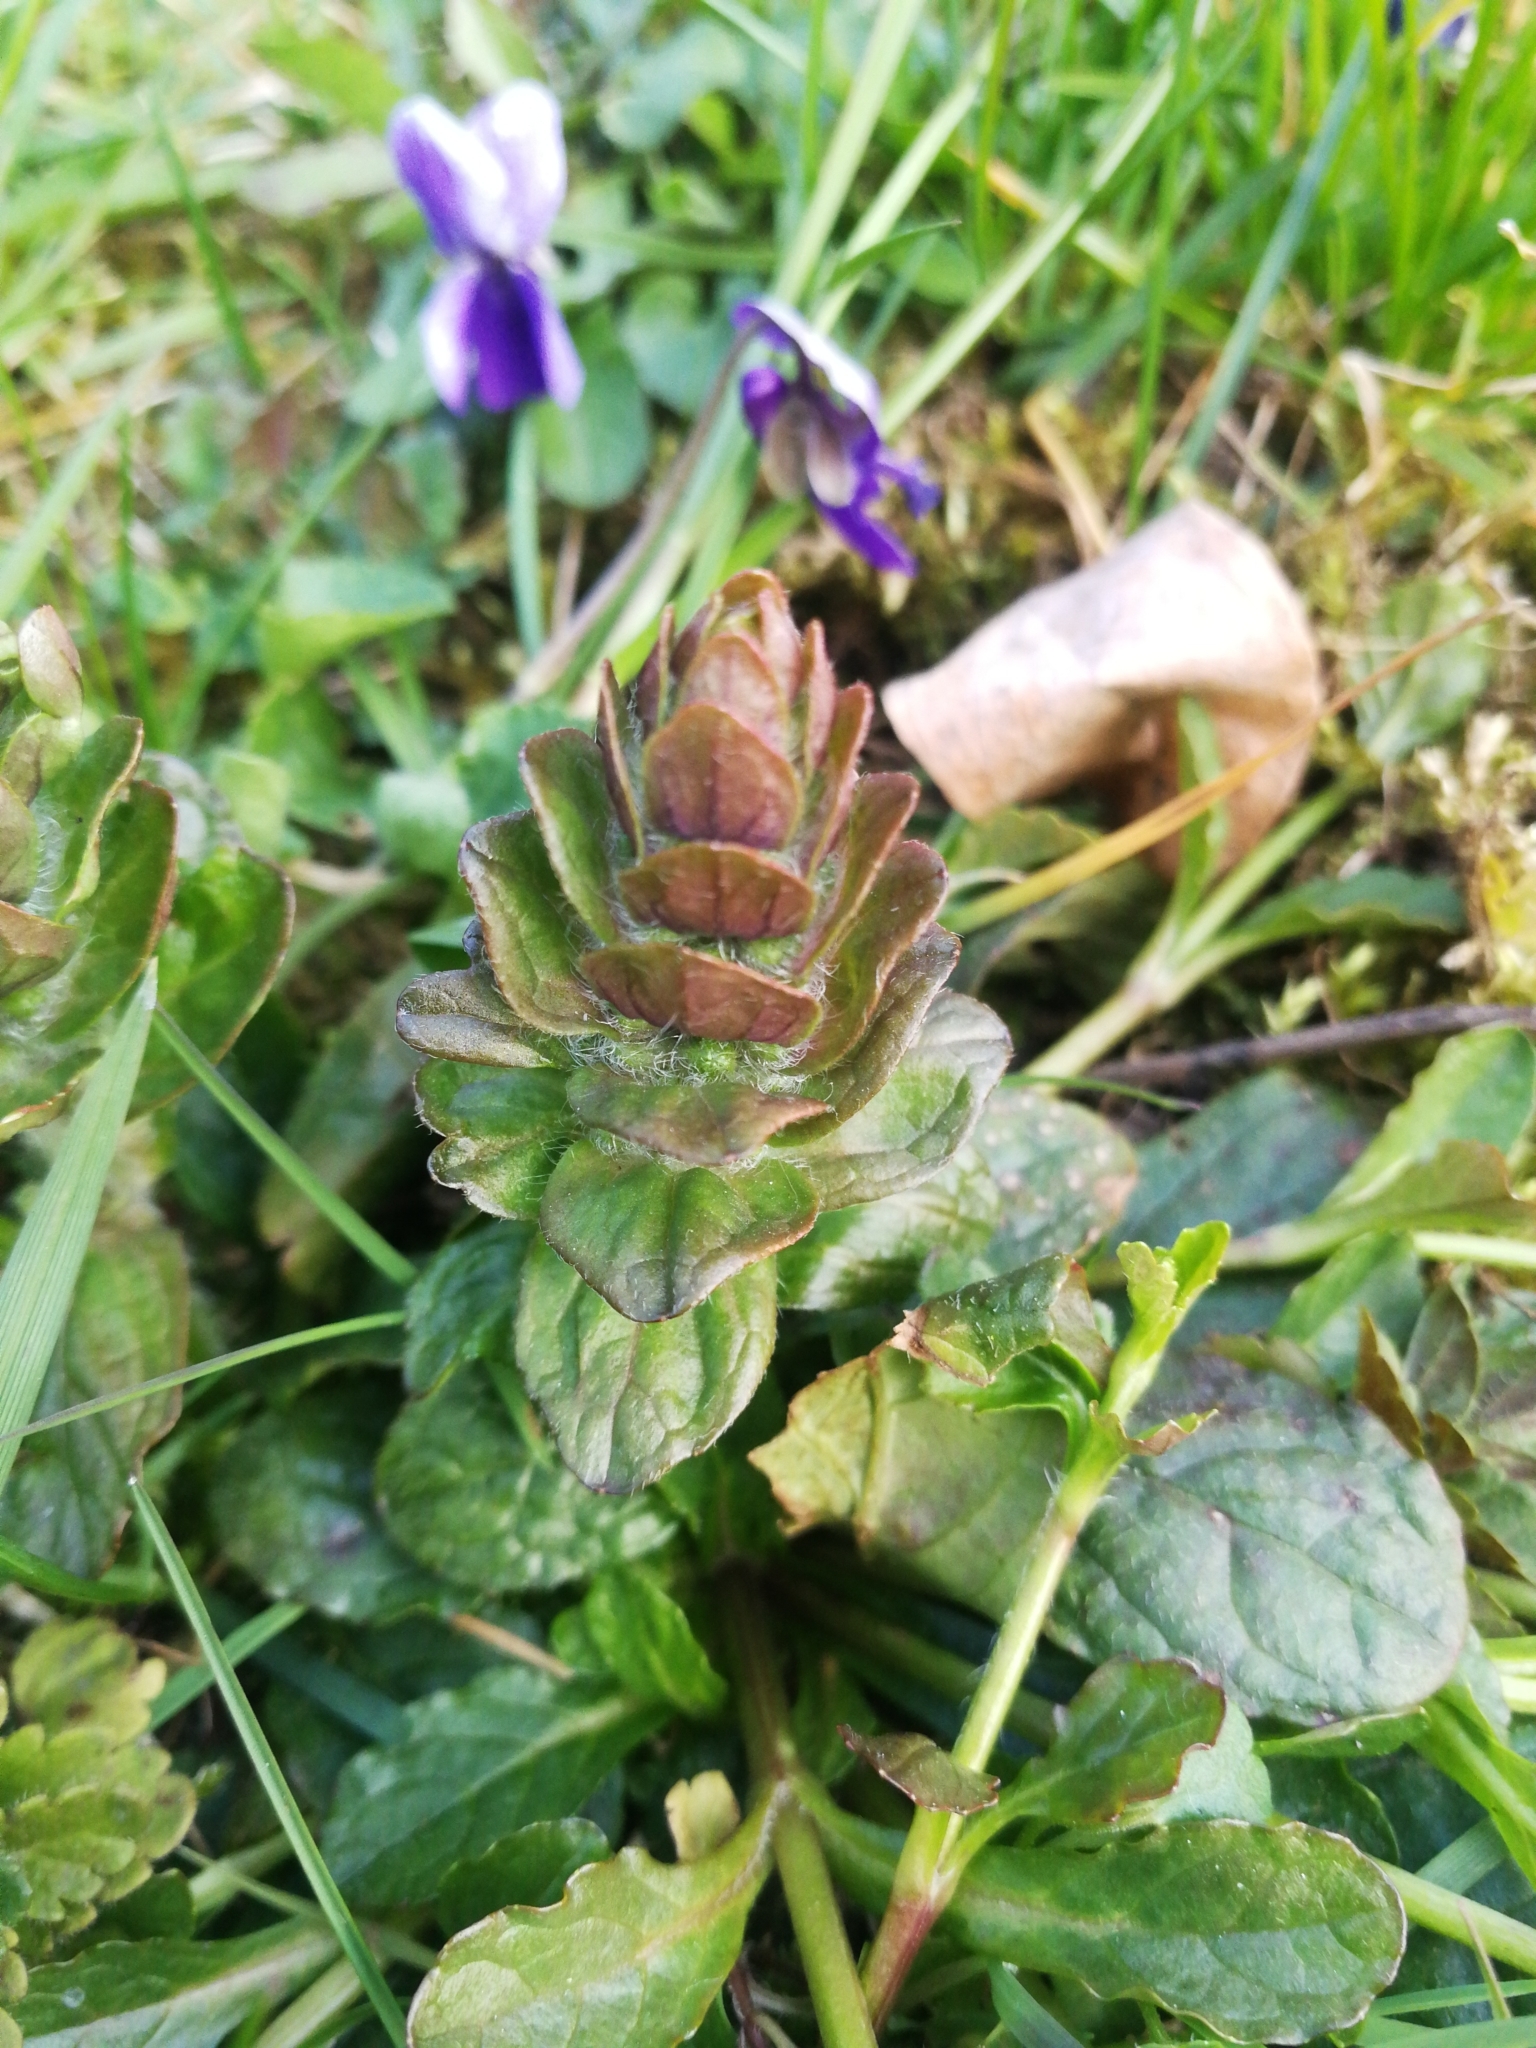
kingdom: Plantae
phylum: Tracheophyta
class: Magnoliopsida
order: Lamiales
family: Lamiaceae
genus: Ajuga
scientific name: Ajuga reptans
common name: Bugle
